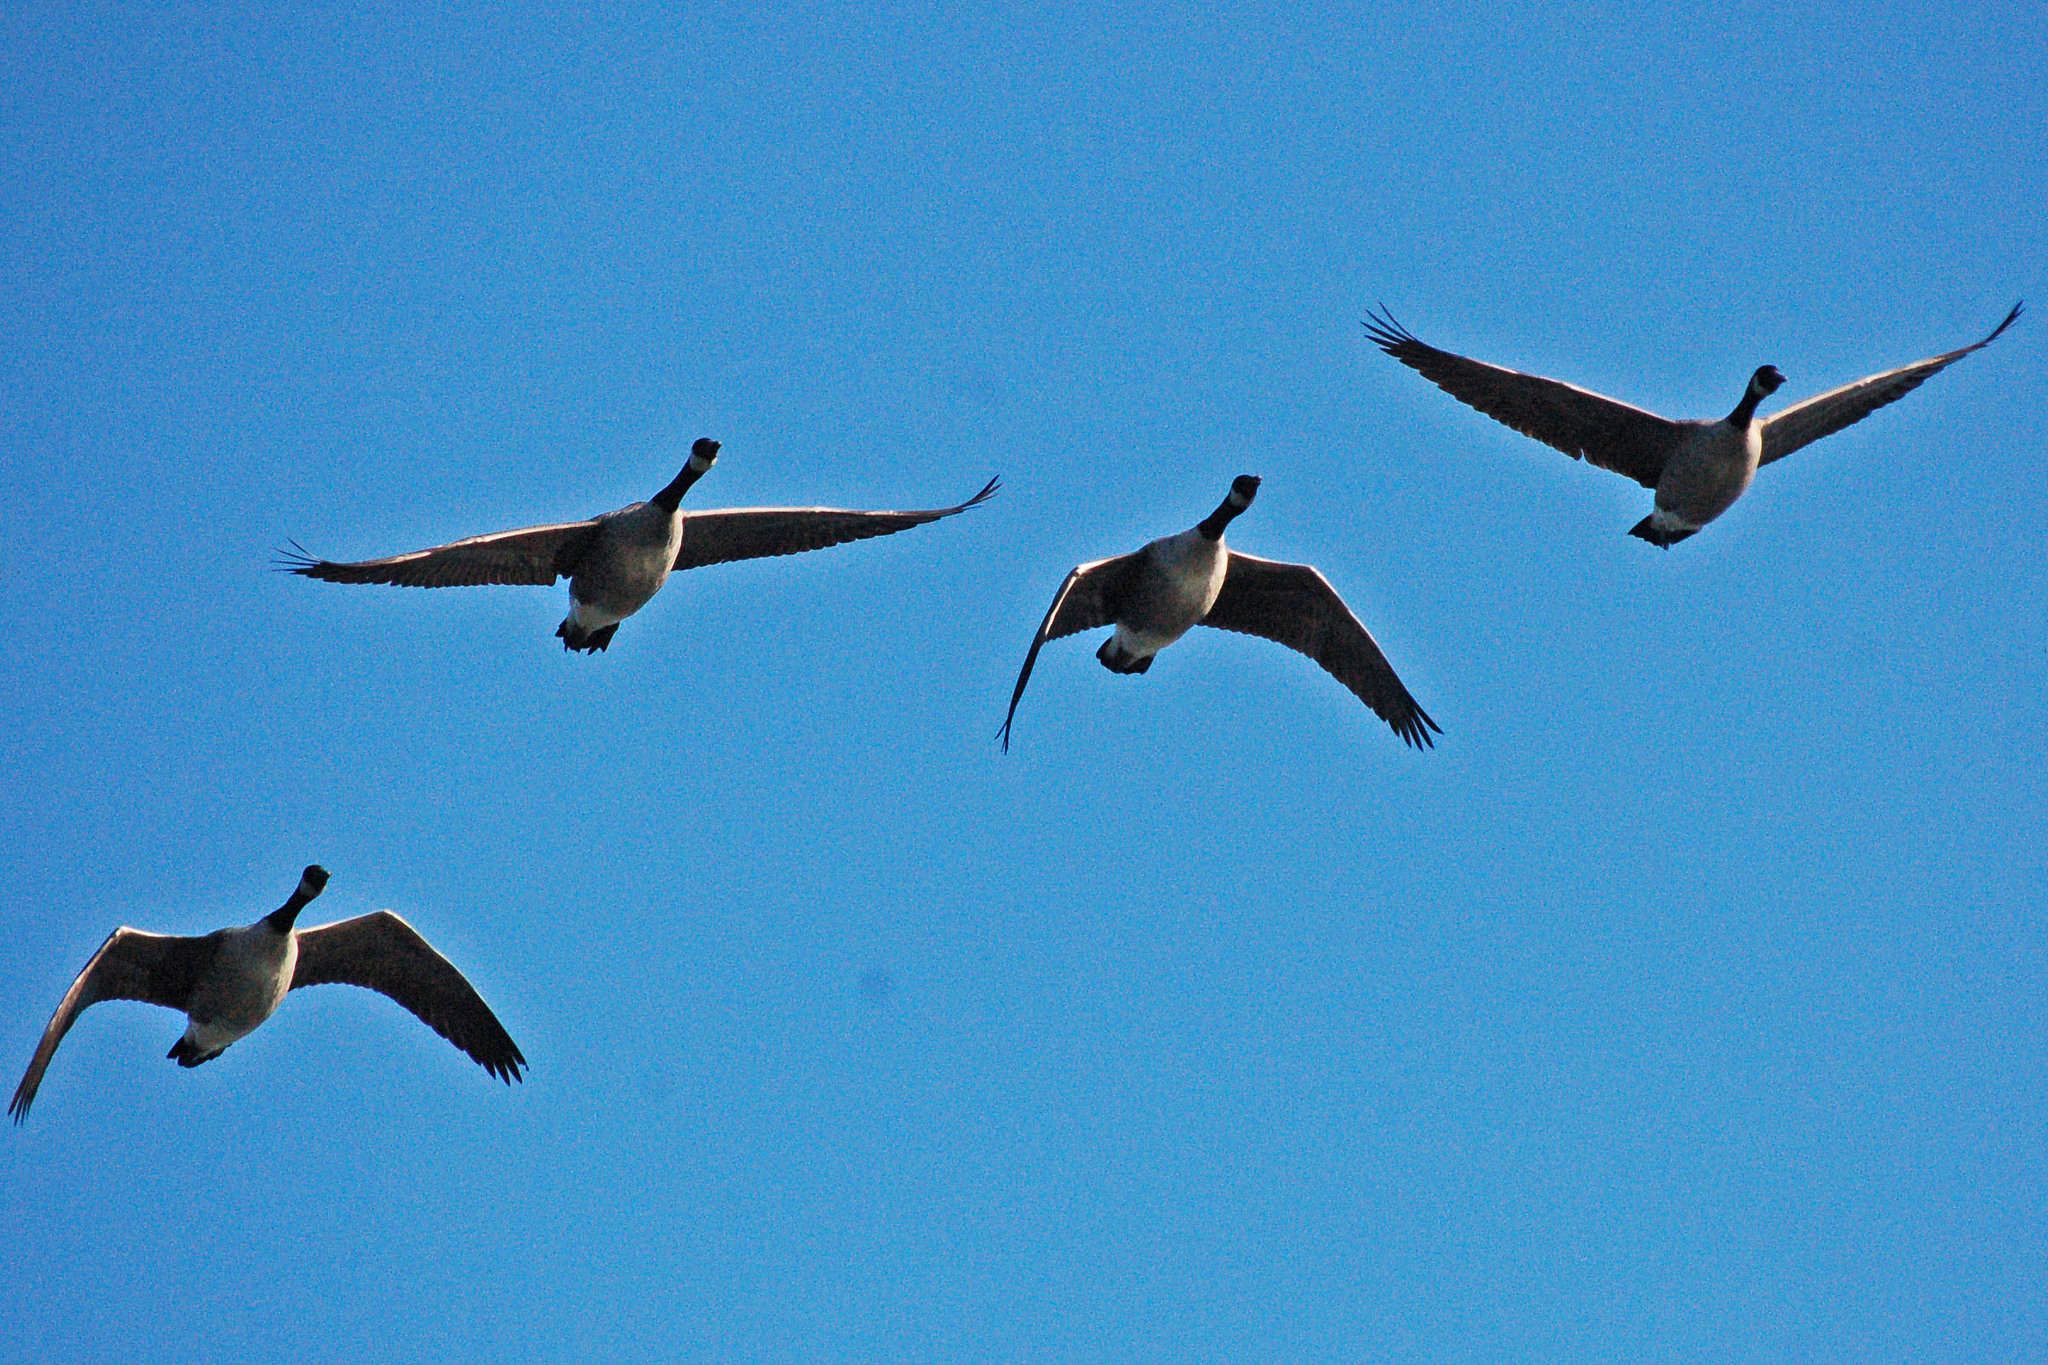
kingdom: Animalia
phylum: Chordata
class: Aves
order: Anseriformes
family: Anatidae
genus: Branta
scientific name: Branta canadensis
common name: Canada goose
